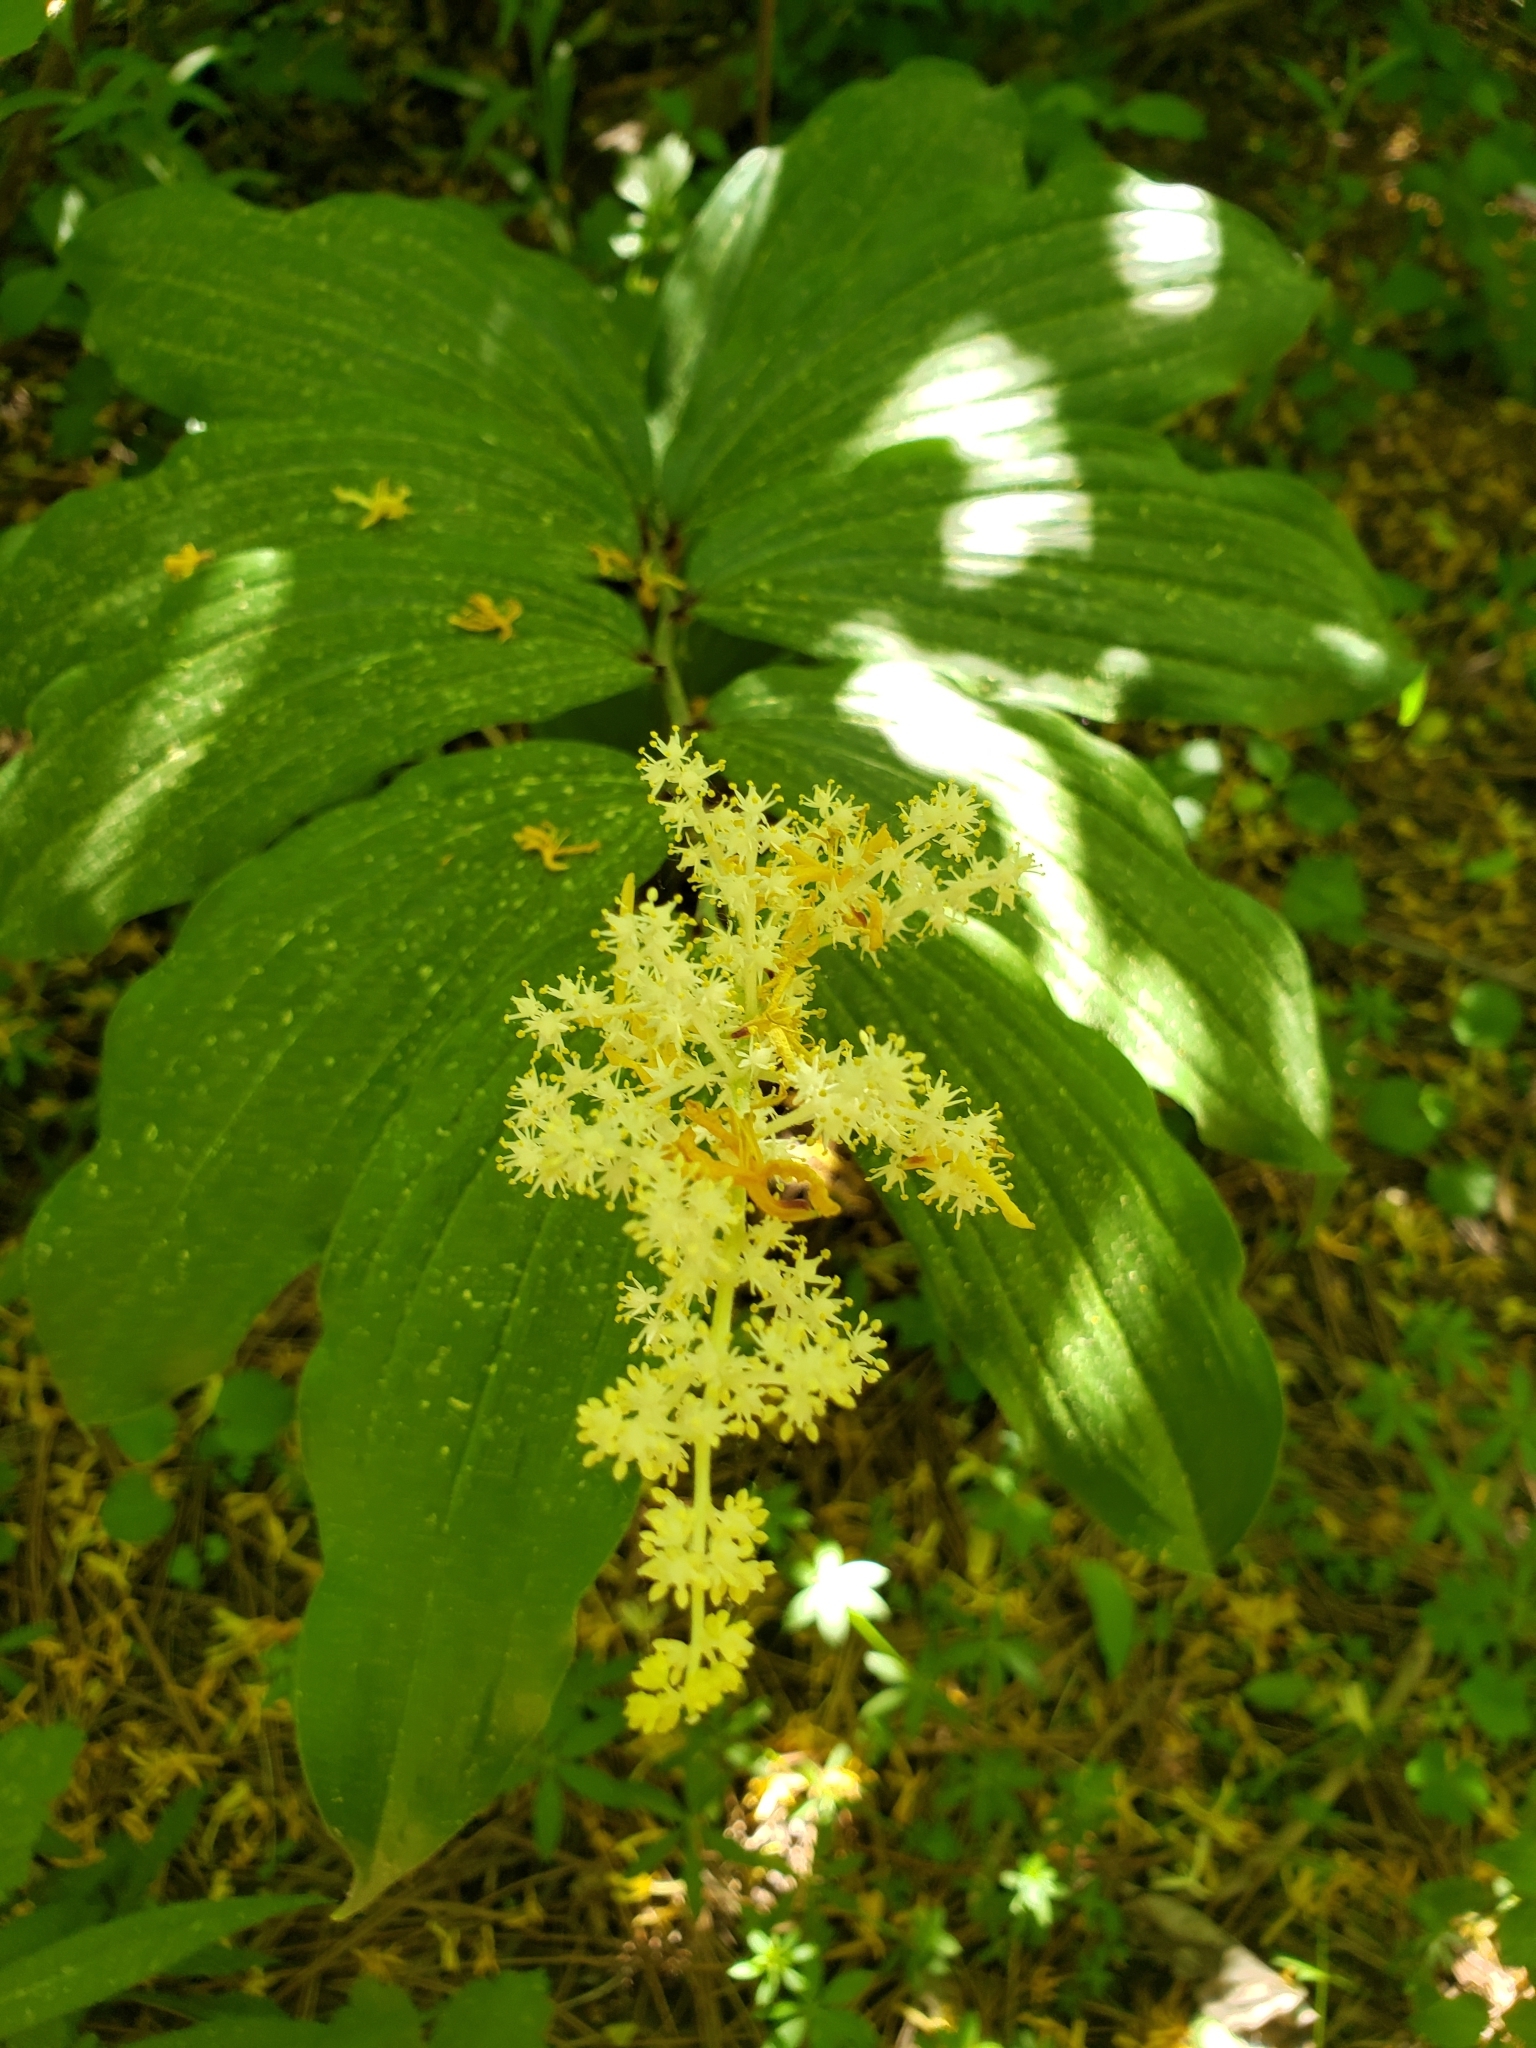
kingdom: Plantae
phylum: Tracheophyta
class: Liliopsida
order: Asparagales
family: Asparagaceae
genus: Maianthemum
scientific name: Maianthemum racemosum
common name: False spikenard
